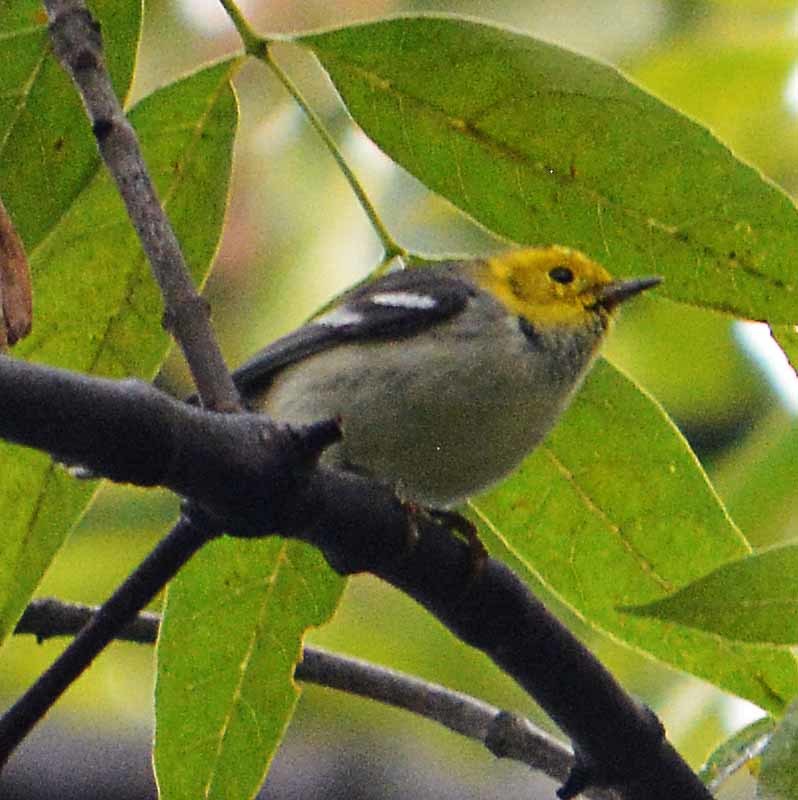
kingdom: Animalia
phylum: Chordata
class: Aves
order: Passeriformes
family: Parulidae
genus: Setophaga
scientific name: Setophaga occidentalis
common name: Hermit warbler
